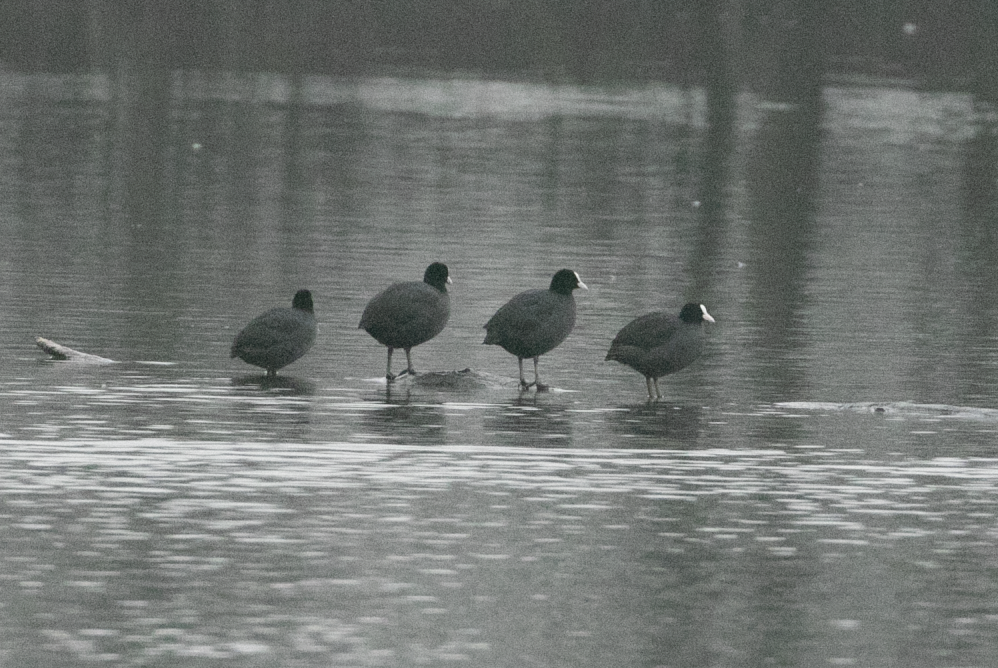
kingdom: Animalia
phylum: Chordata
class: Aves
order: Gruiformes
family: Rallidae
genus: Fulica
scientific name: Fulica atra
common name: Eurasian coot
